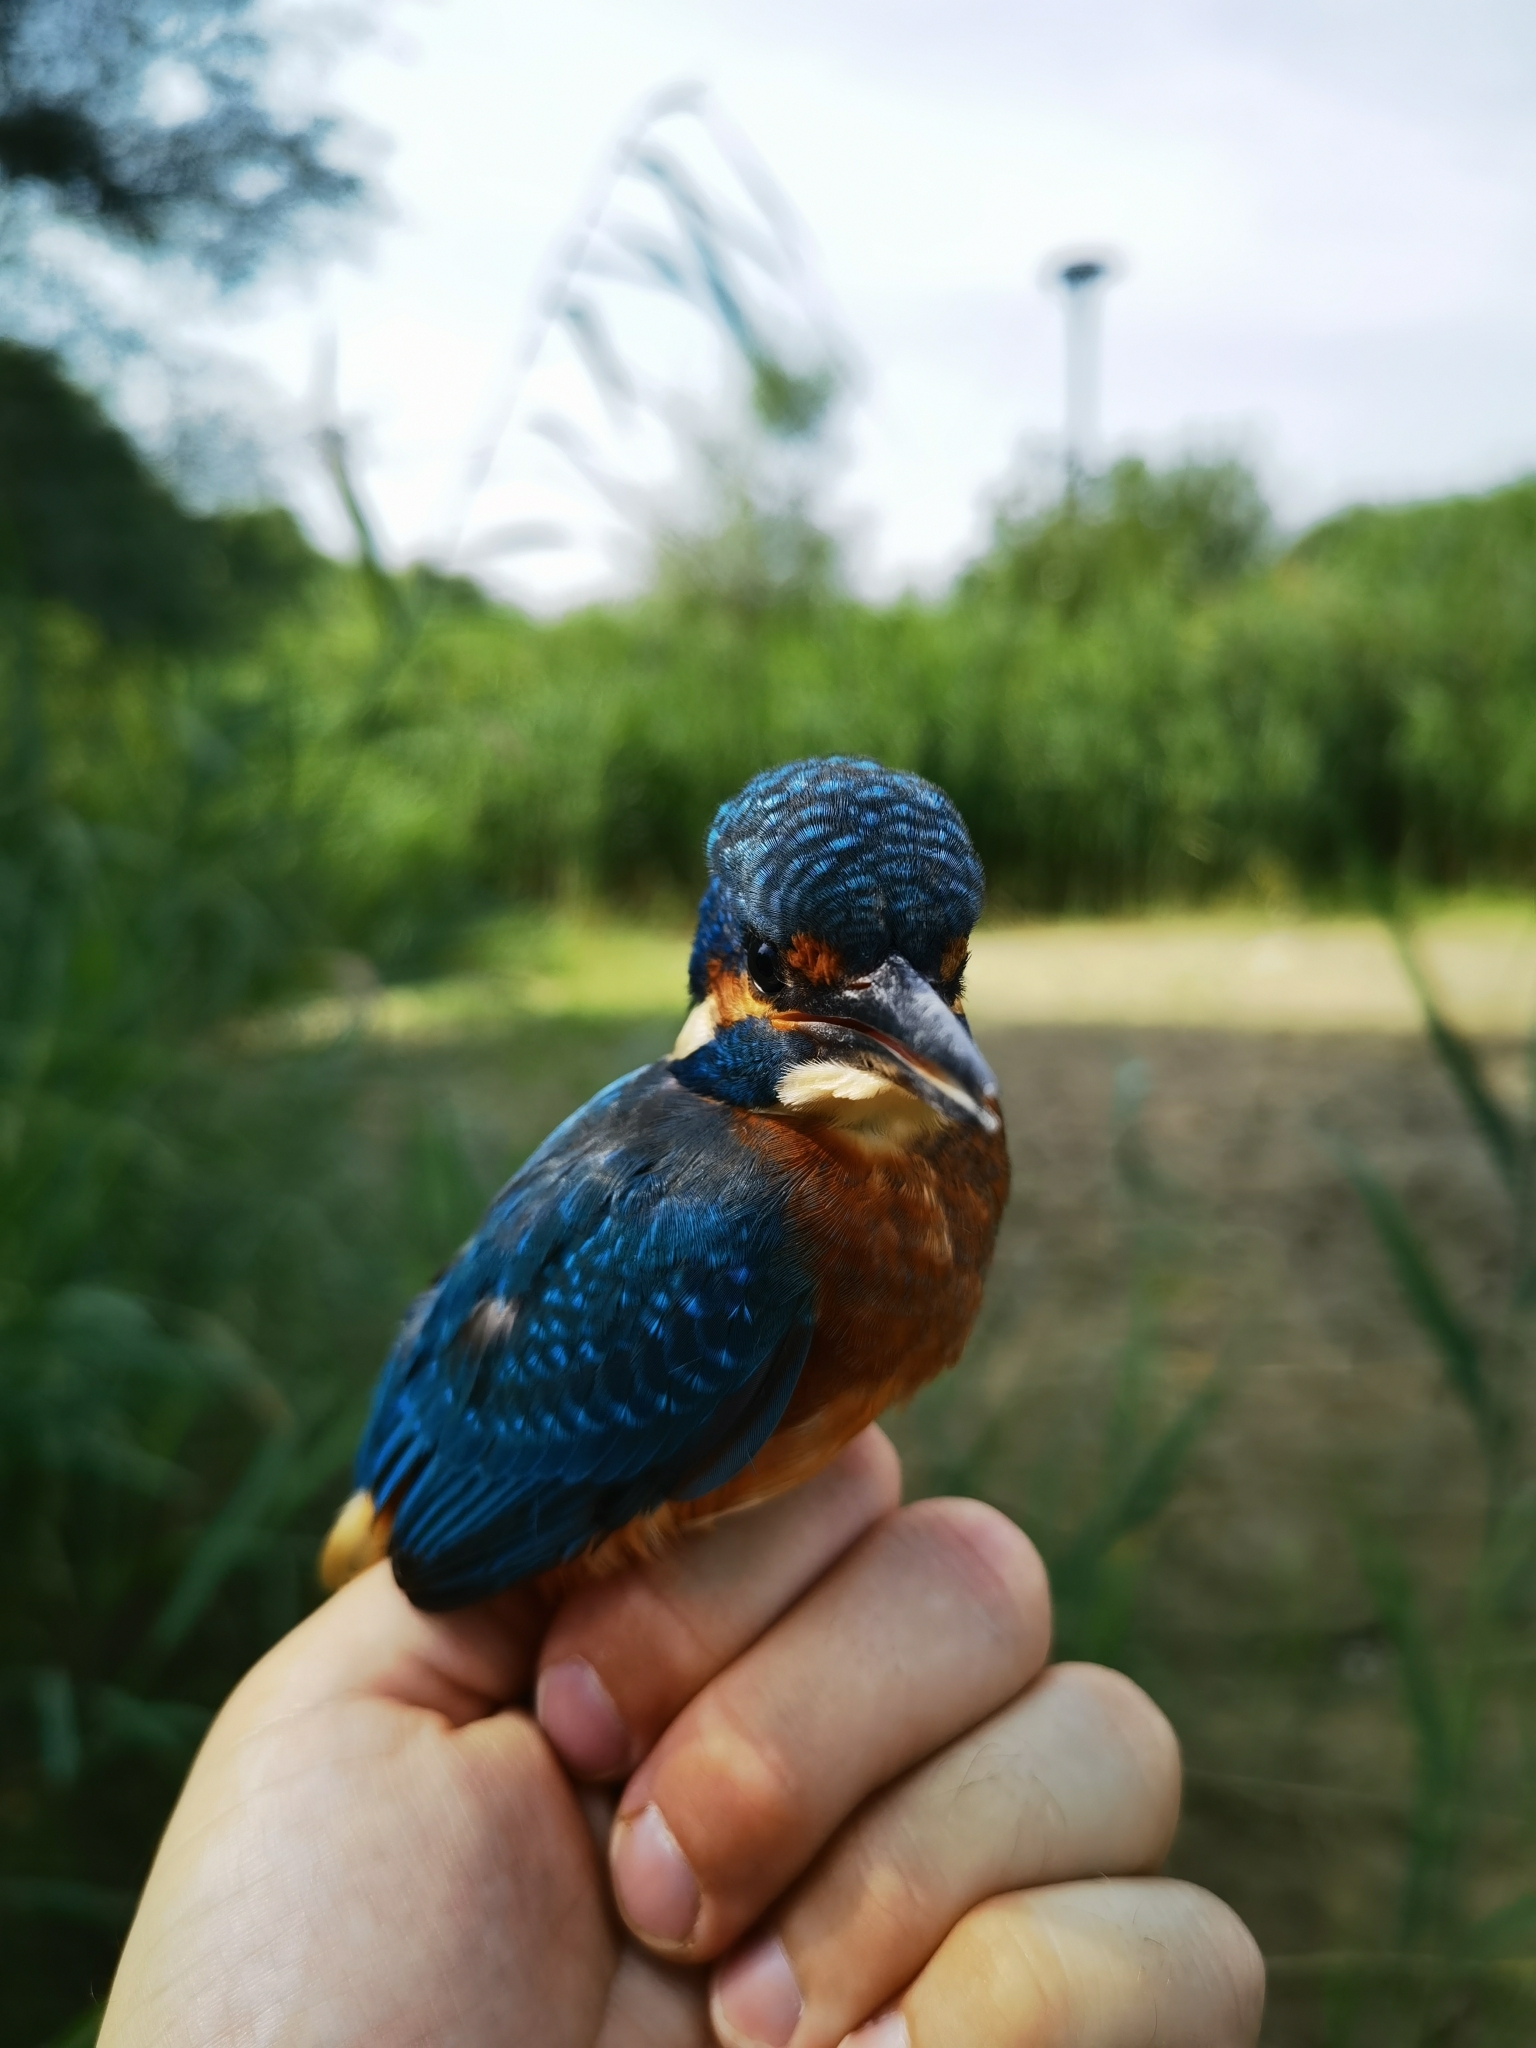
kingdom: Animalia
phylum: Chordata
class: Aves
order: Coraciiformes
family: Alcedinidae
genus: Alcedo
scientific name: Alcedo atthis
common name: Common kingfisher
